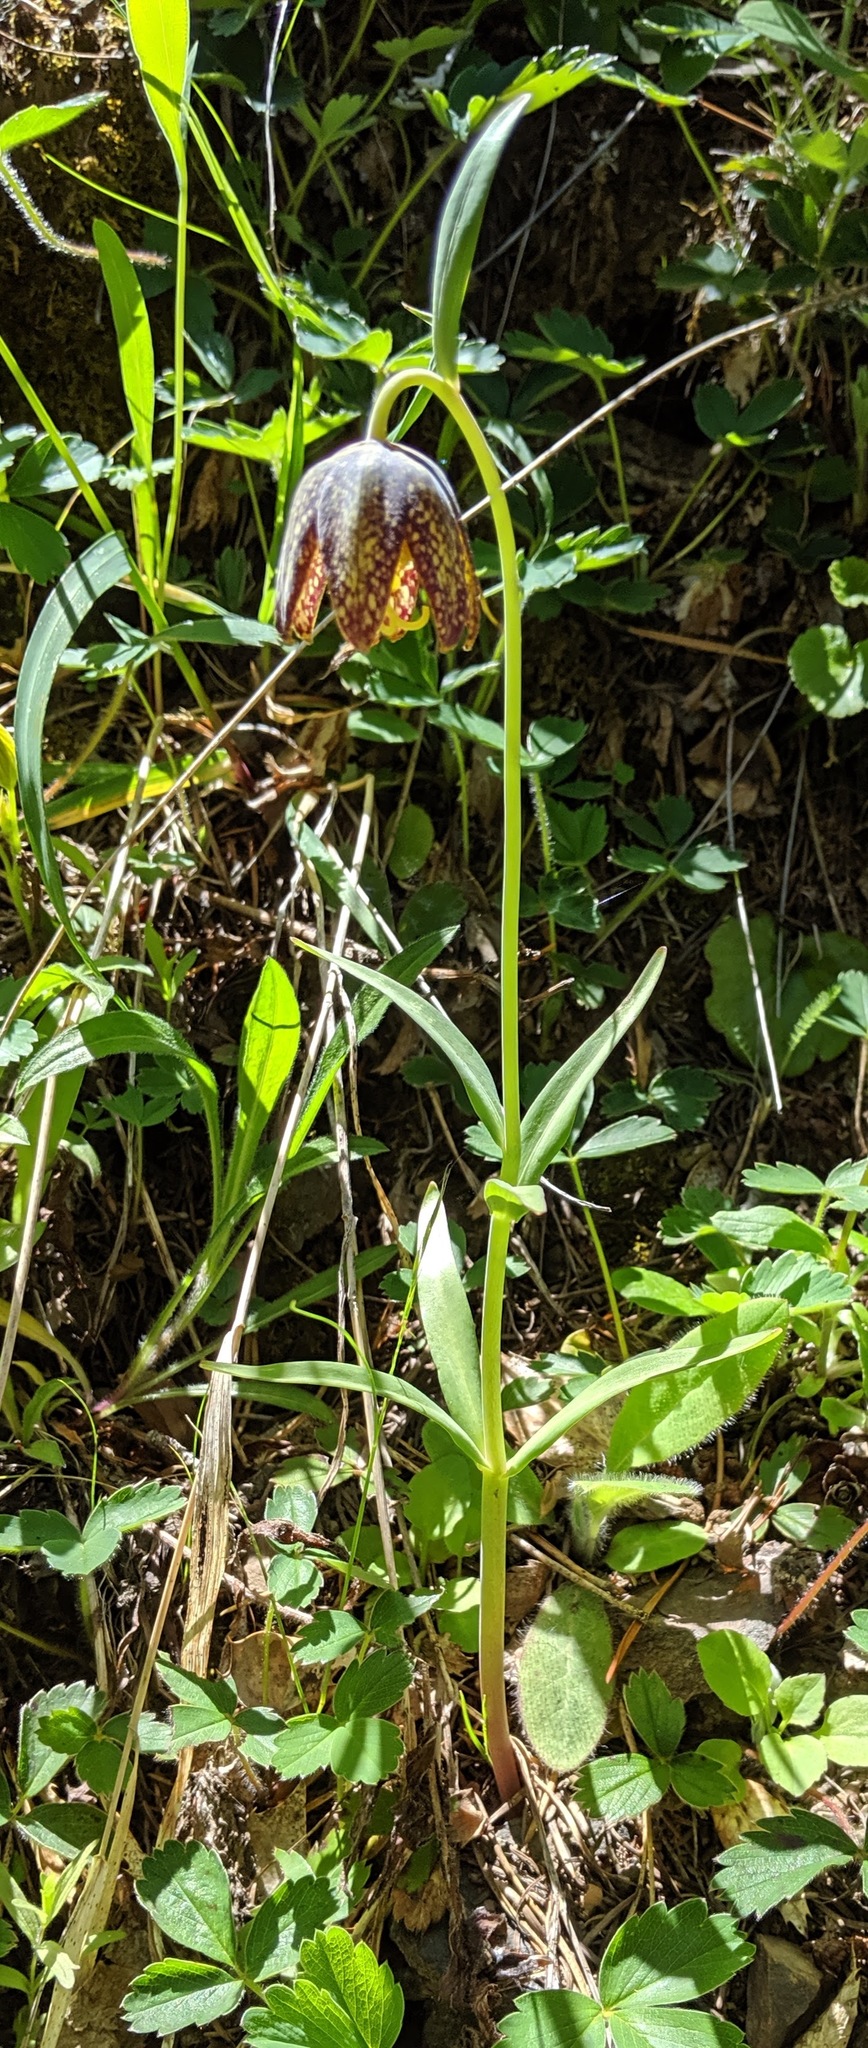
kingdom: Plantae
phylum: Tracheophyta
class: Liliopsida
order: Liliales
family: Liliaceae
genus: Fritillaria
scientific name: Fritillaria affinis
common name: Ojai fritillary
